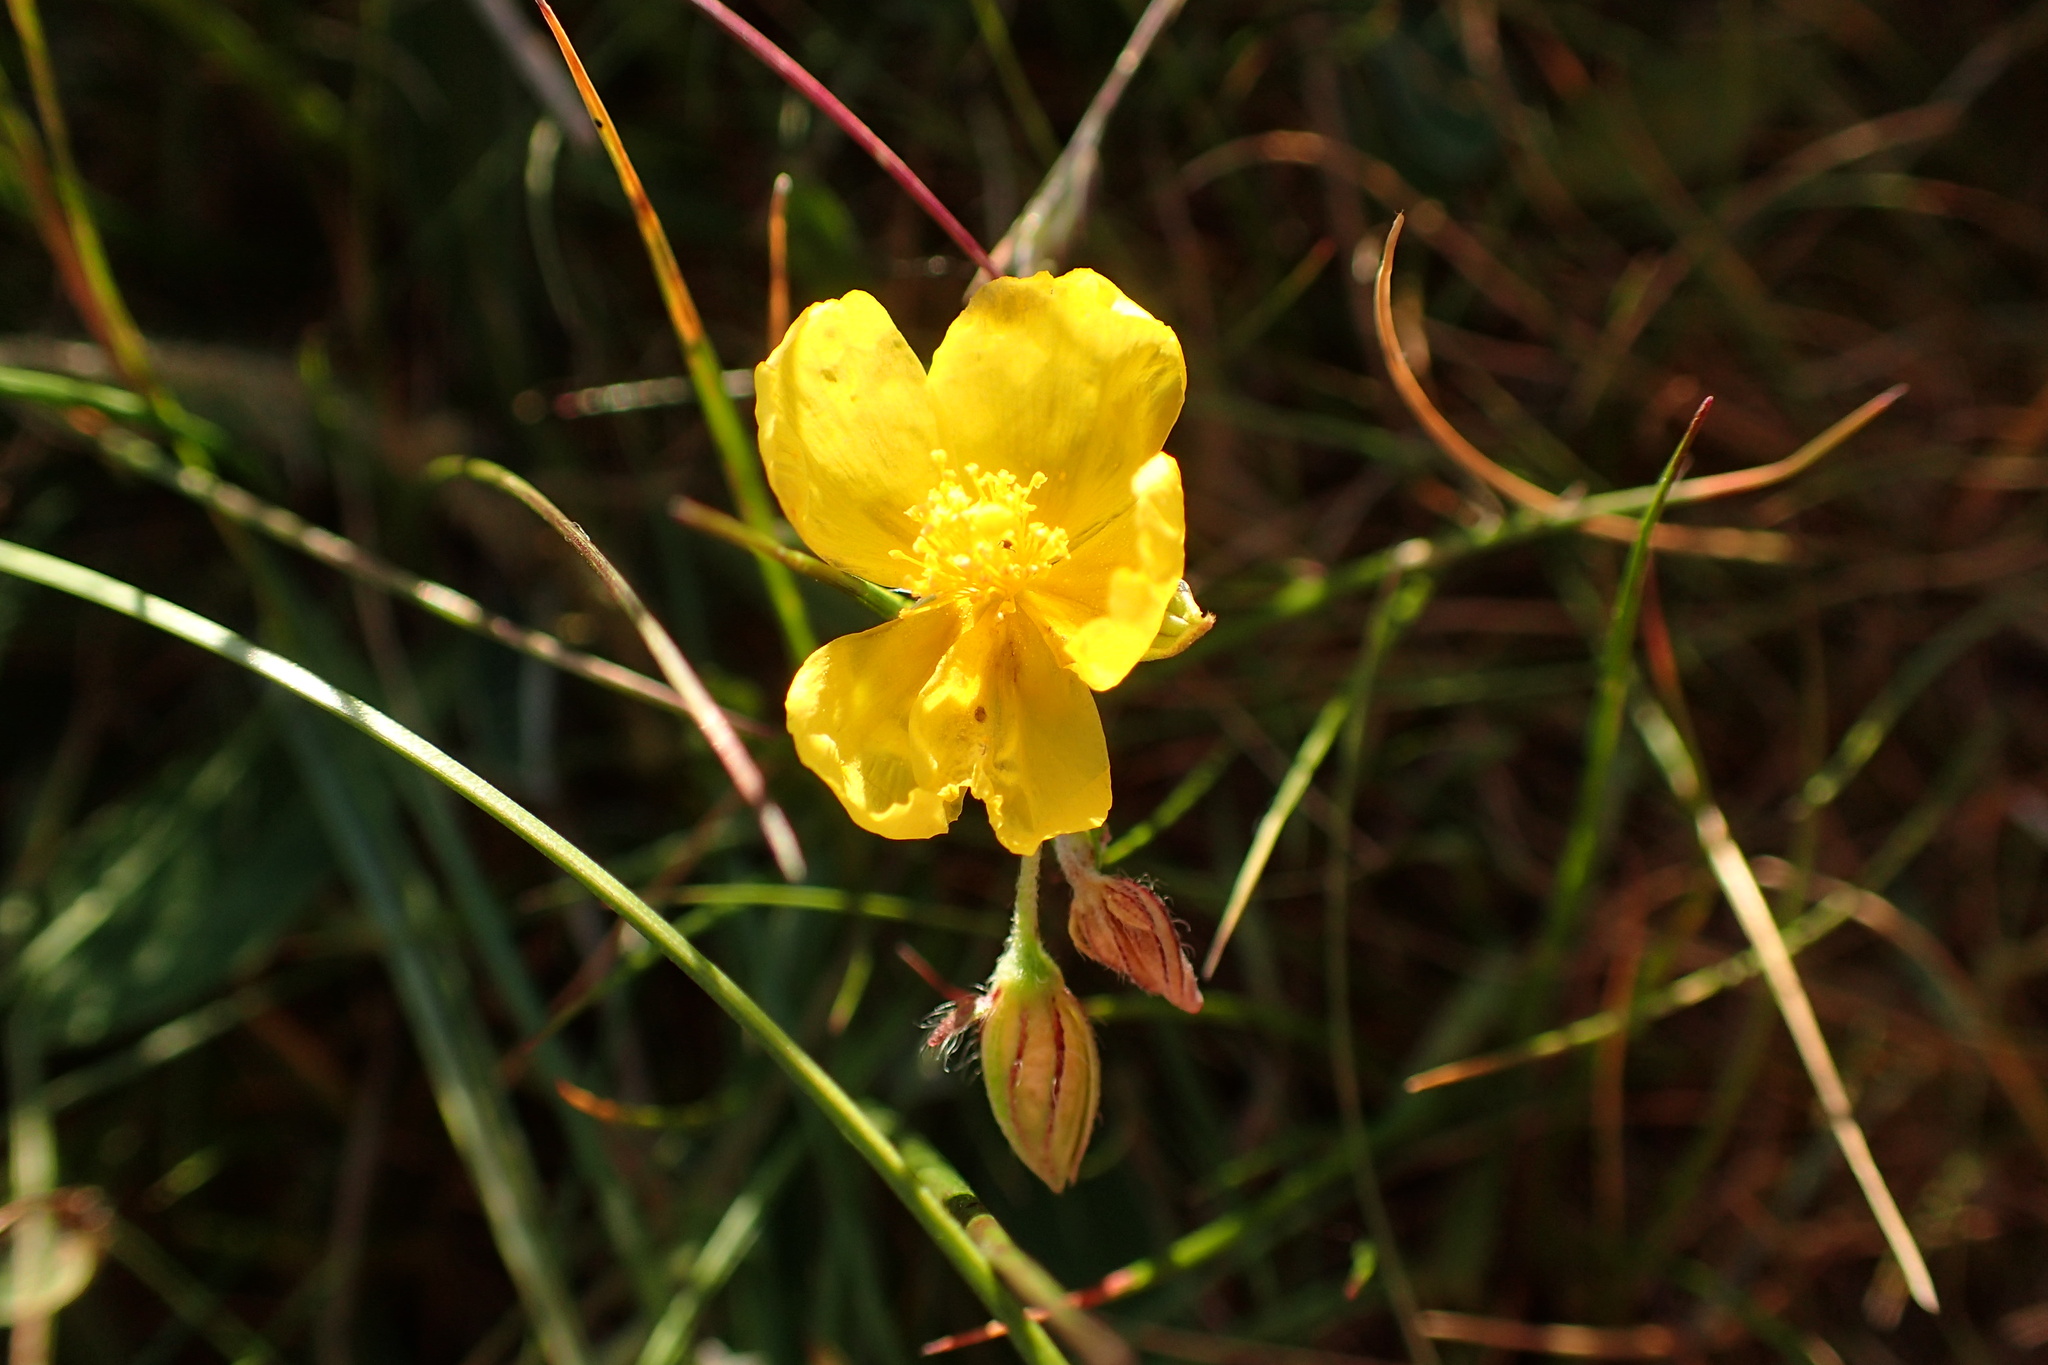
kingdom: Plantae
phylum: Tracheophyta
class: Magnoliopsida
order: Malvales
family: Cistaceae
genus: Helianthemum
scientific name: Helianthemum nummularium
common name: Common rock-rose
